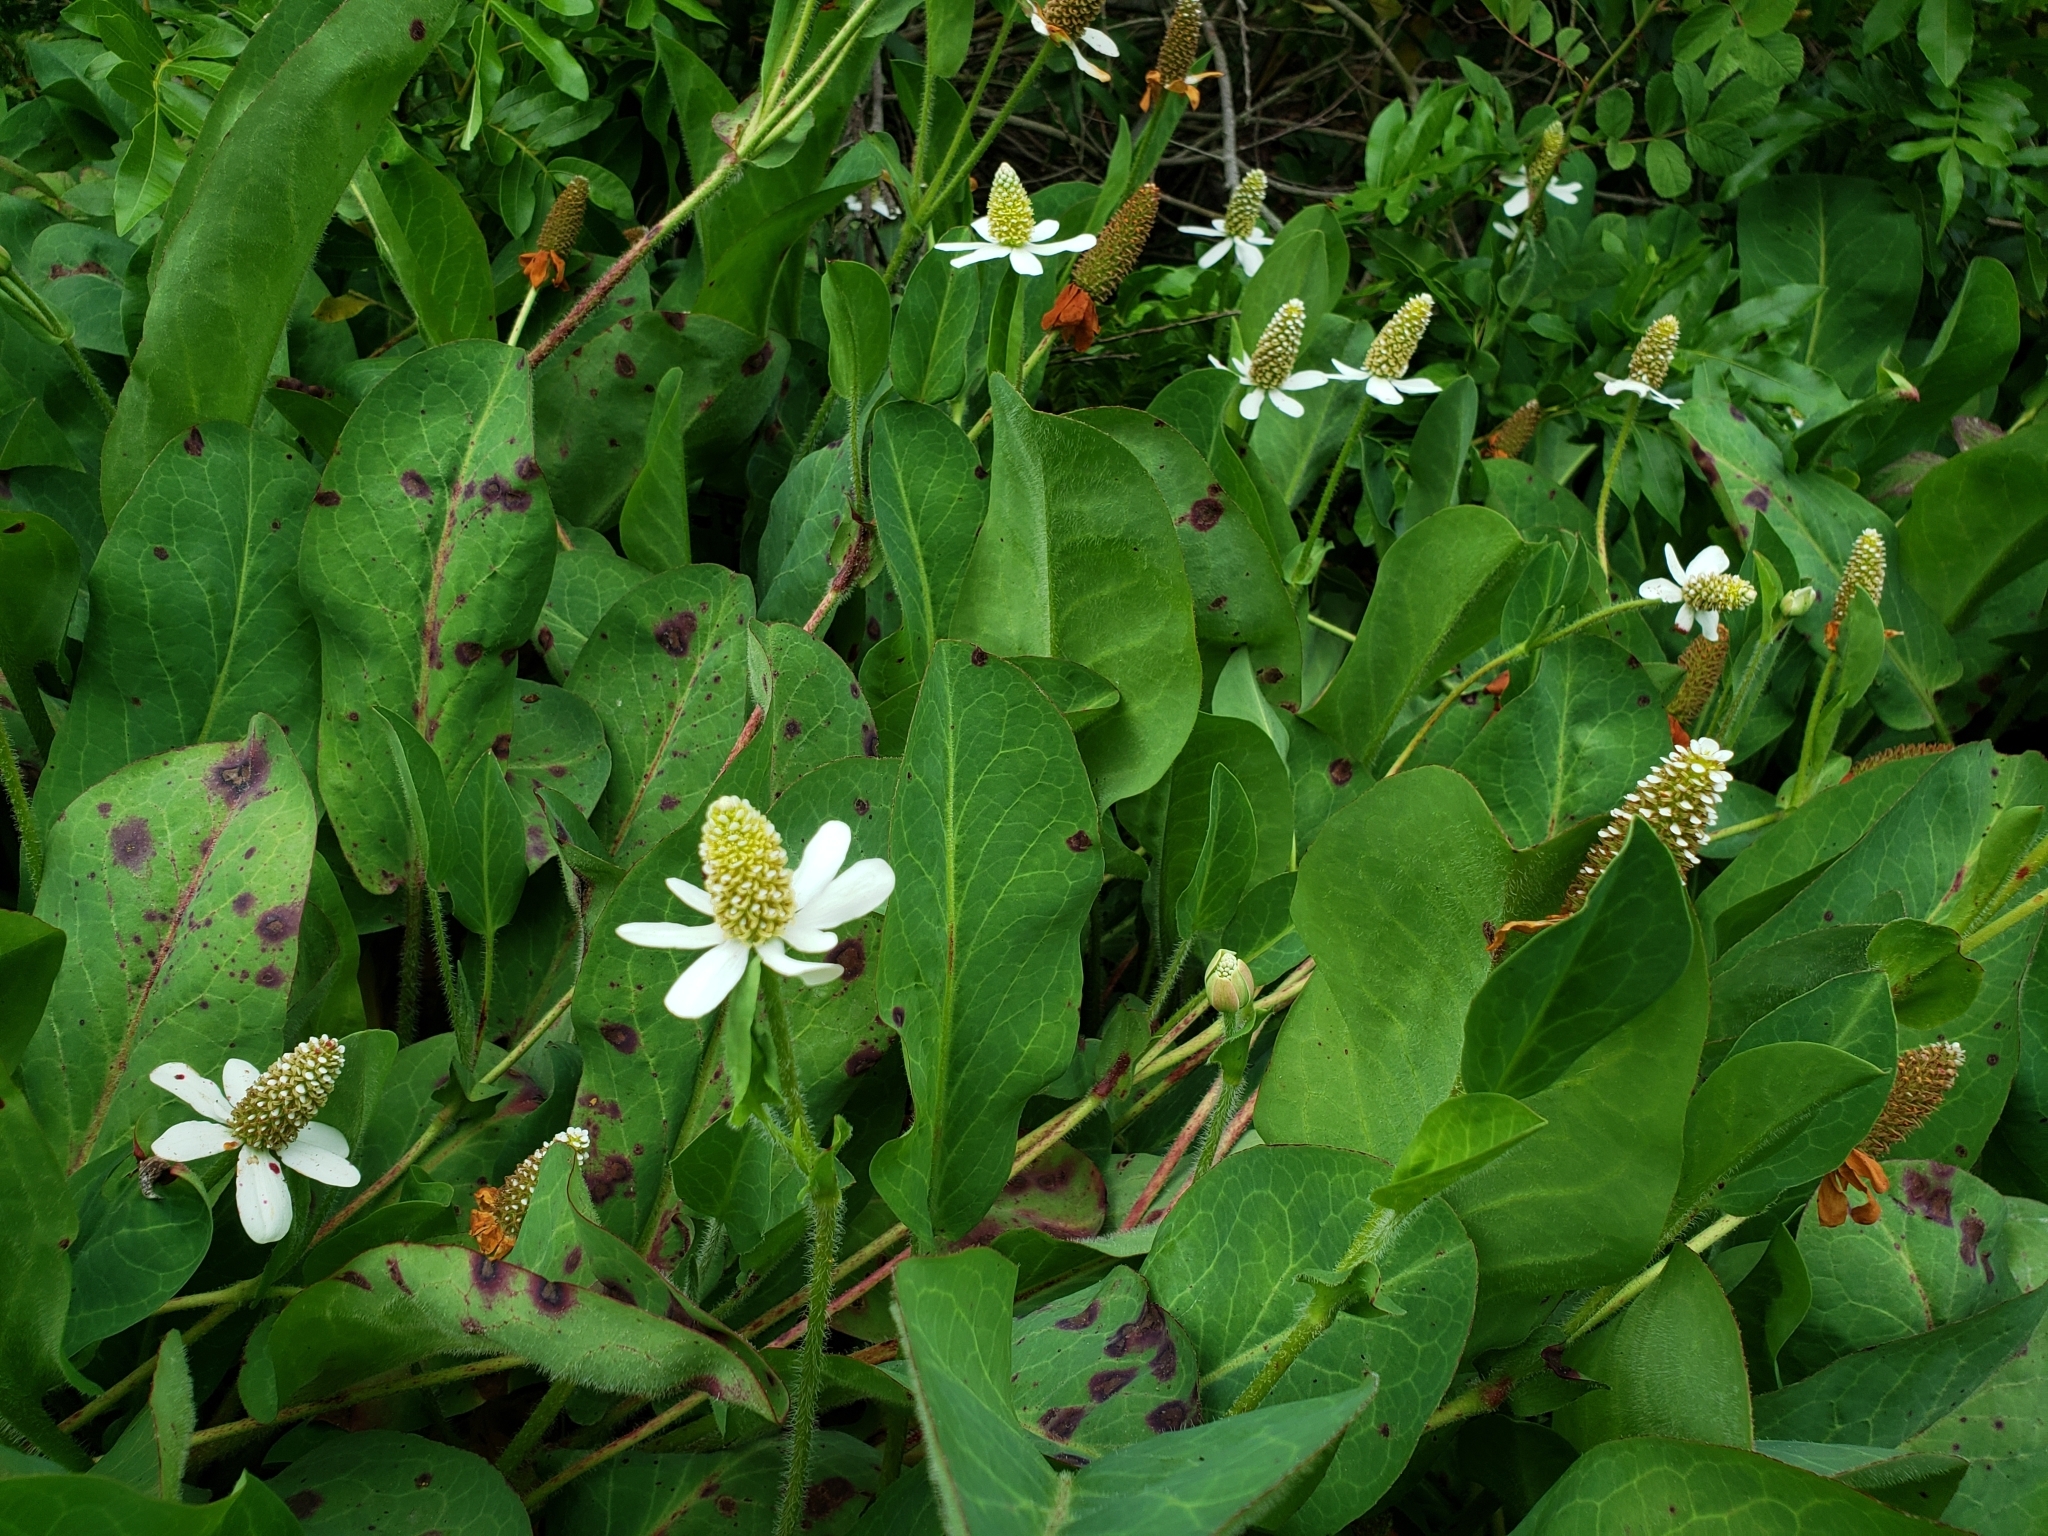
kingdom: Plantae
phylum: Tracheophyta
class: Magnoliopsida
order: Piperales
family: Saururaceae
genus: Anemopsis
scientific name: Anemopsis californica
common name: Apache-beads
